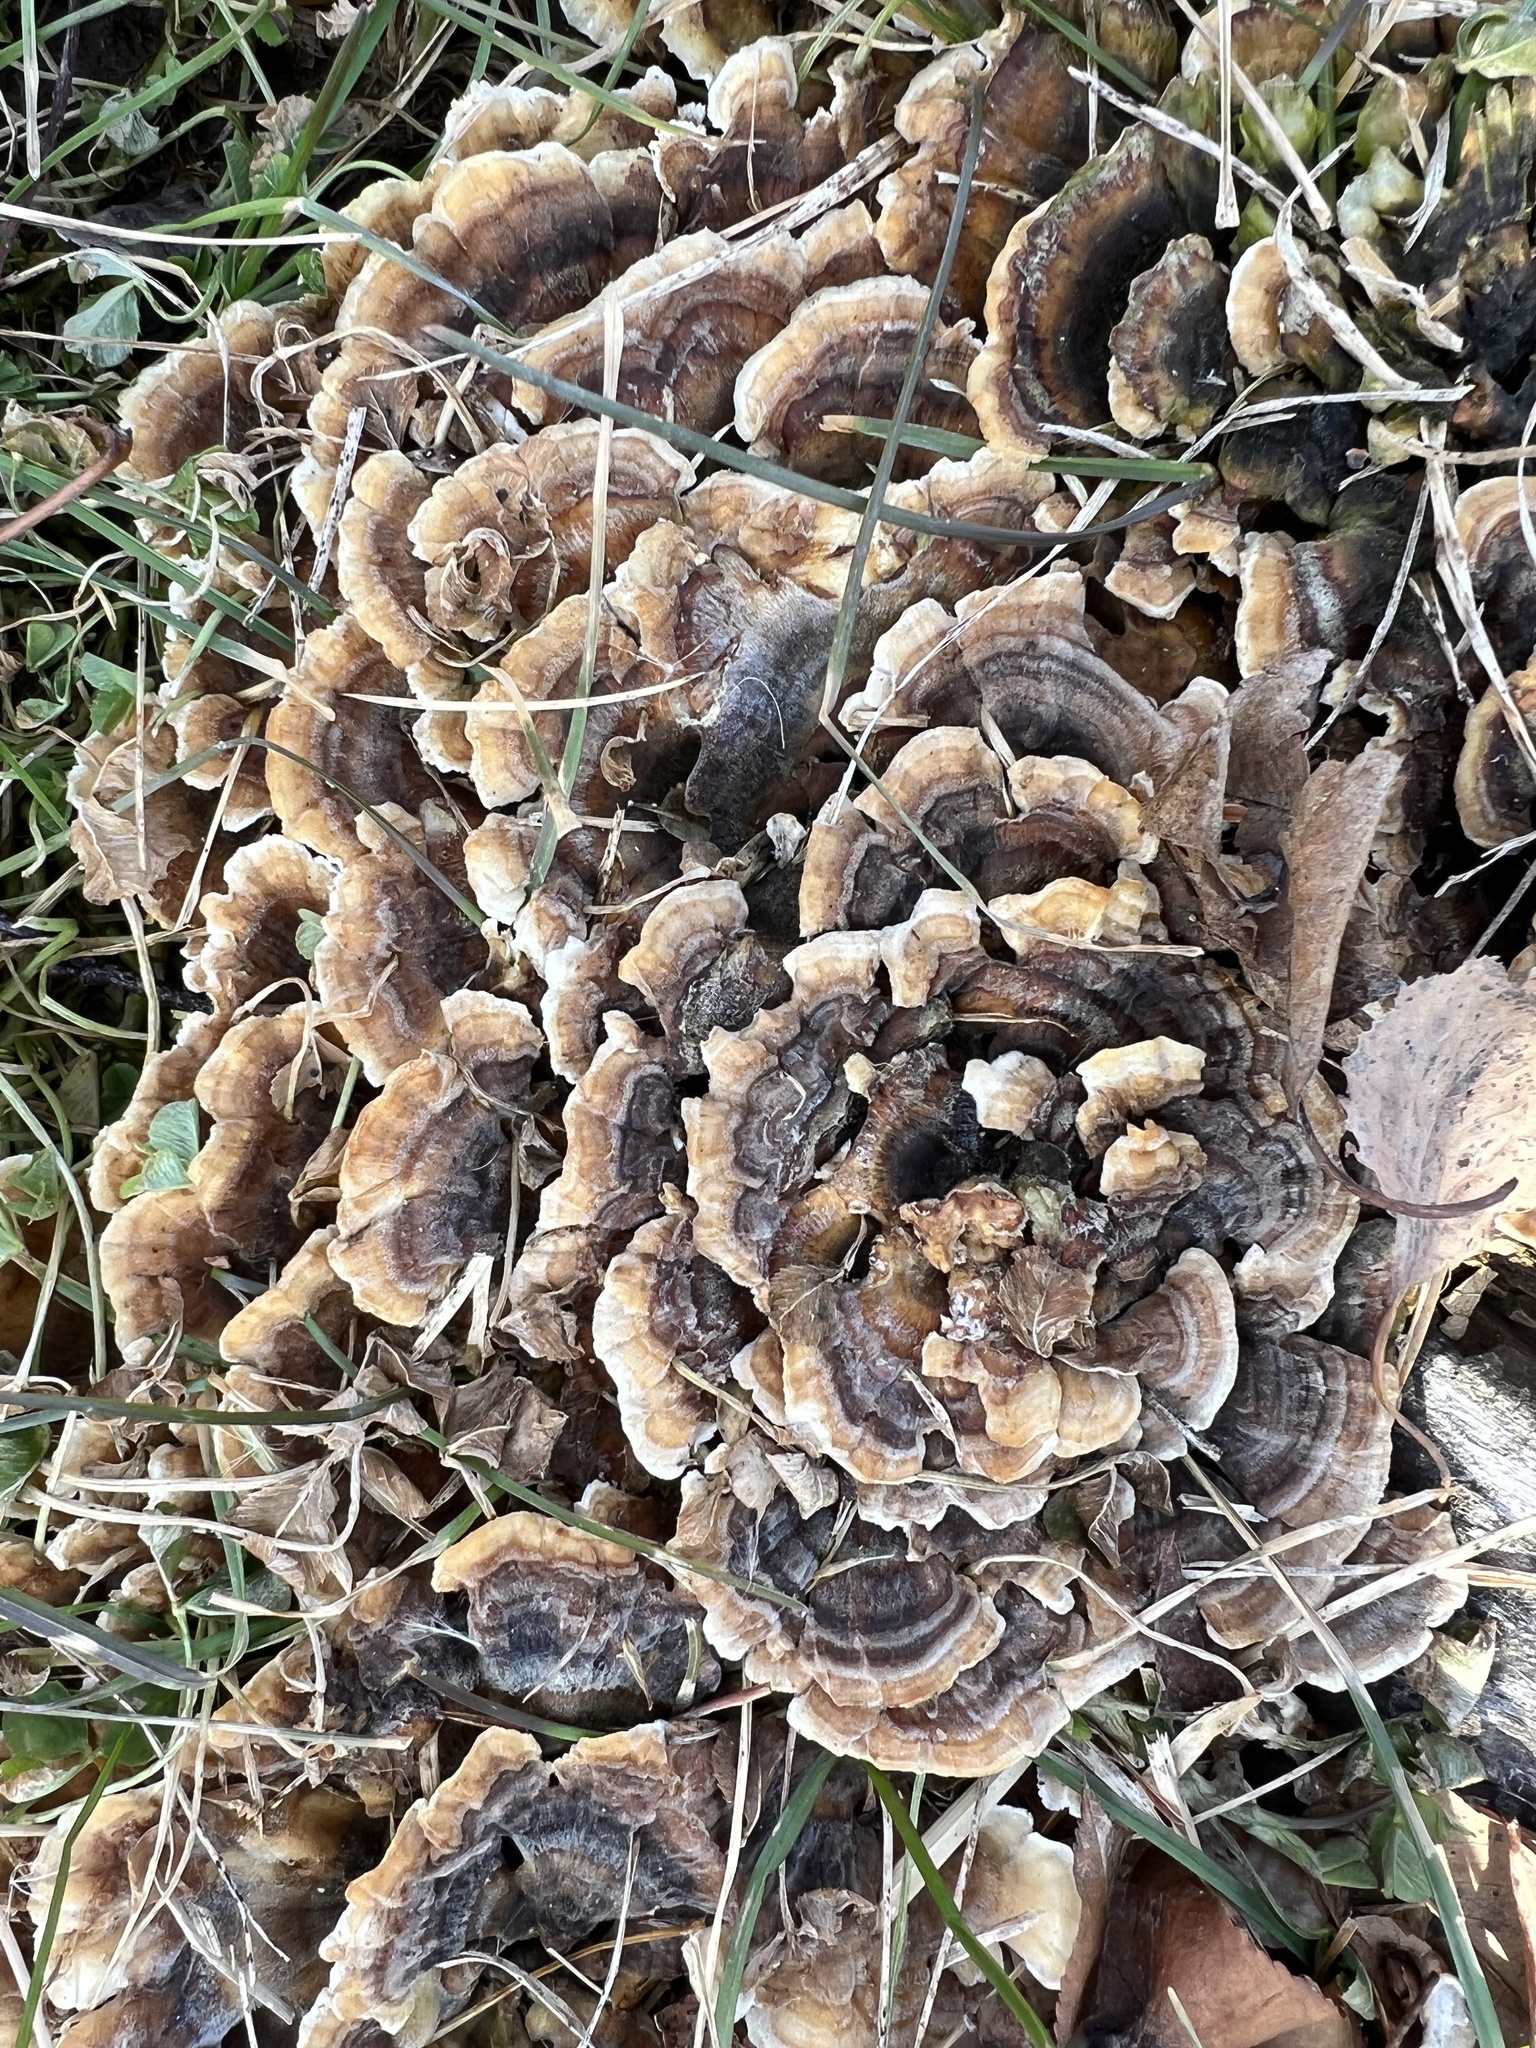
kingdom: Fungi
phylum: Basidiomycota
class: Agaricomycetes
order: Polyporales
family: Polyporaceae
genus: Trametes
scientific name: Trametes versicolor
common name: Turkeytail
